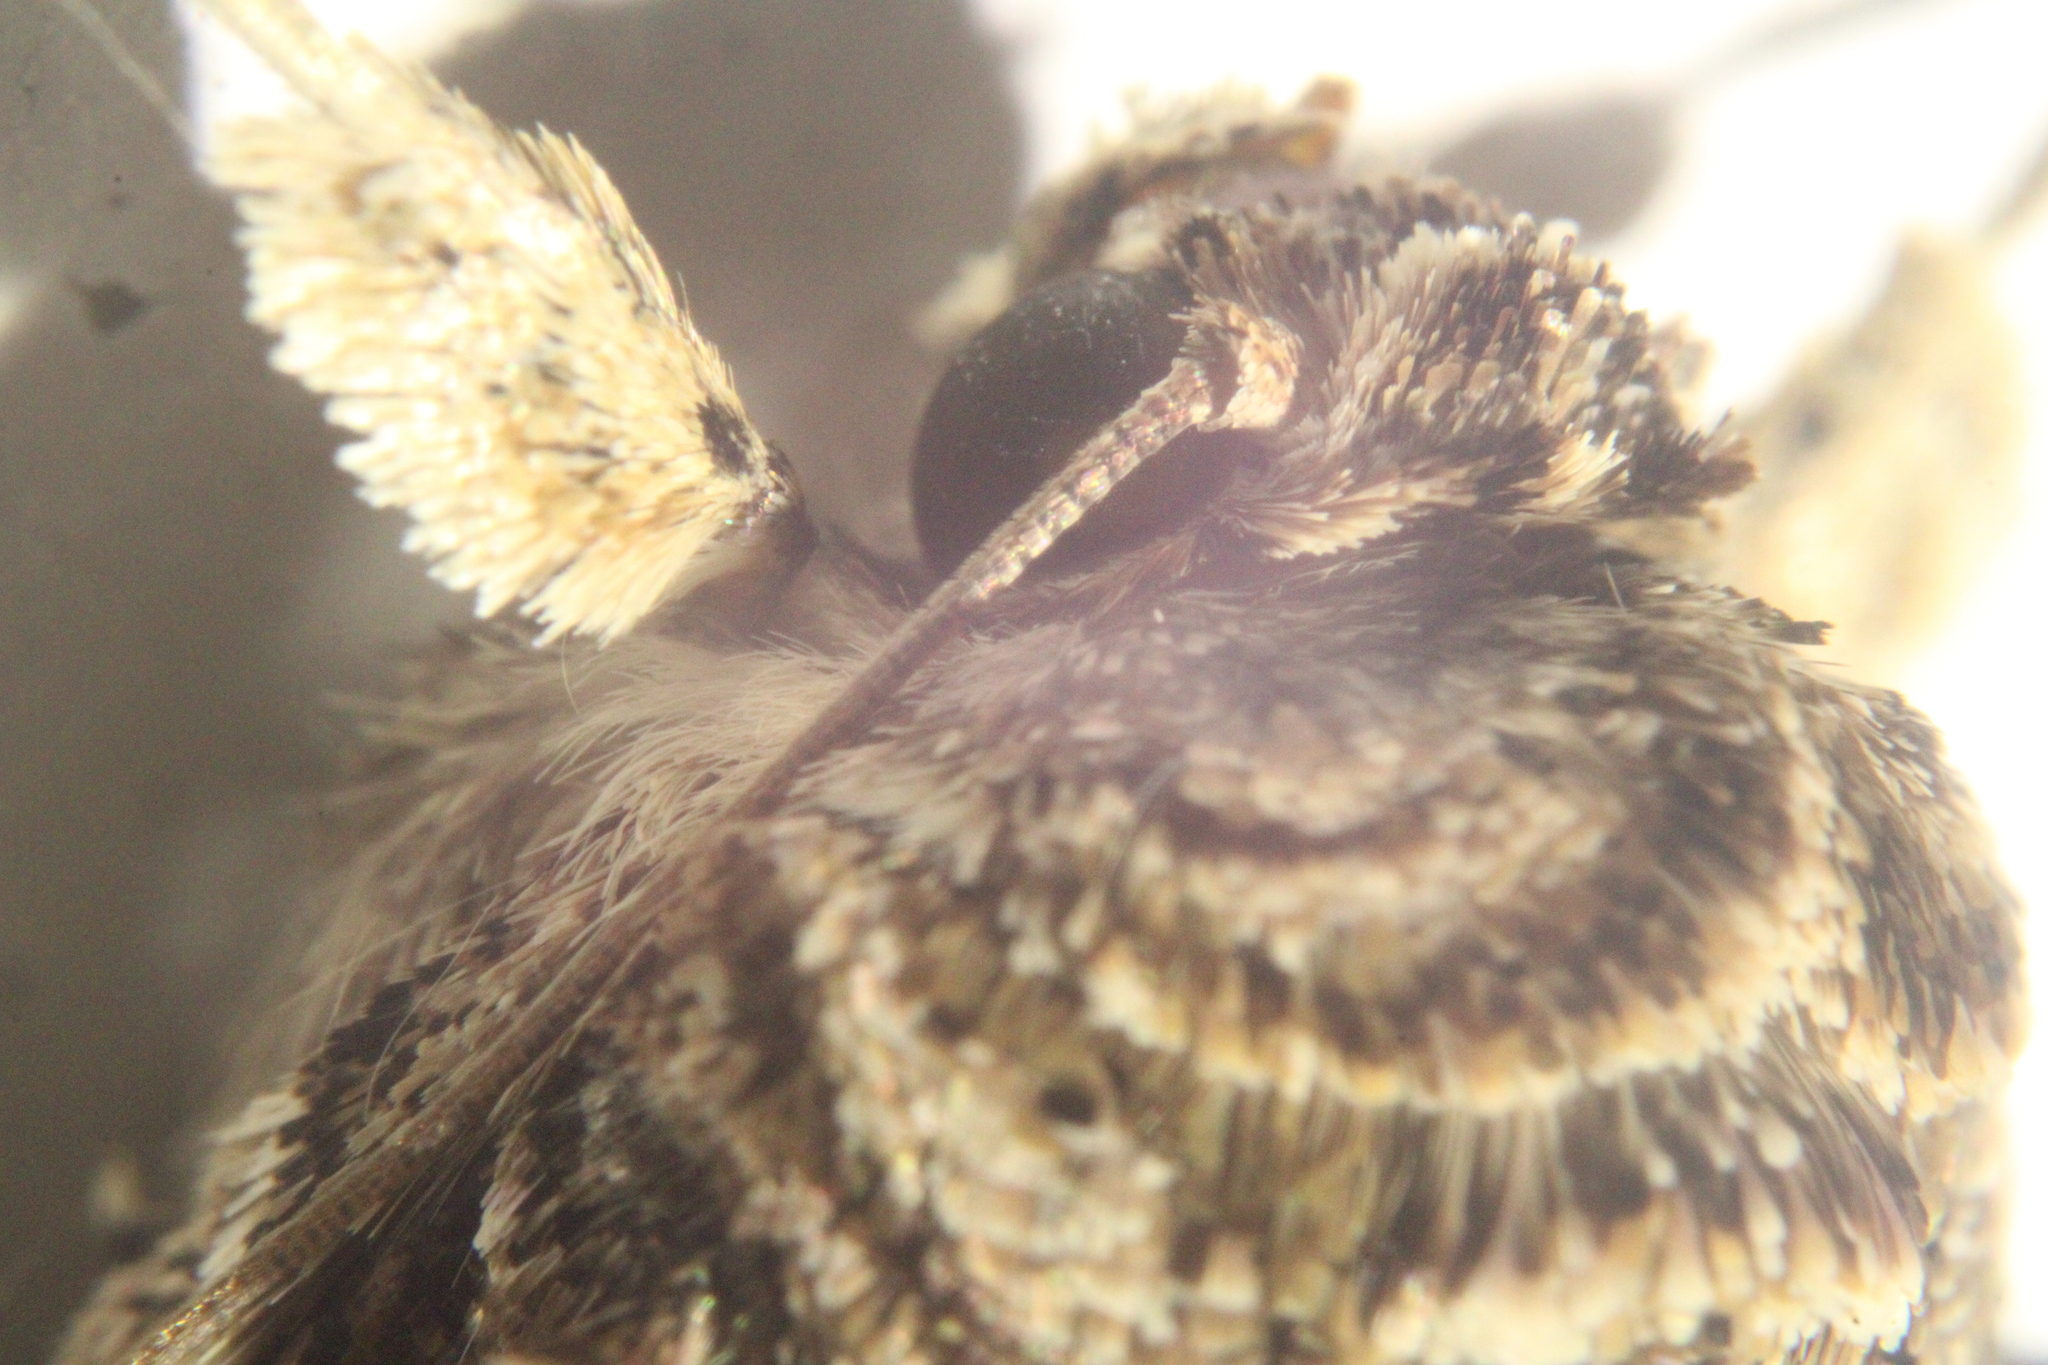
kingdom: Animalia
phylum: Arthropoda
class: Insecta
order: Lepidoptera
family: Noctuidae
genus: Spodoptera
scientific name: Spodoptera ornithogalli
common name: Yellow-striped armyworm
